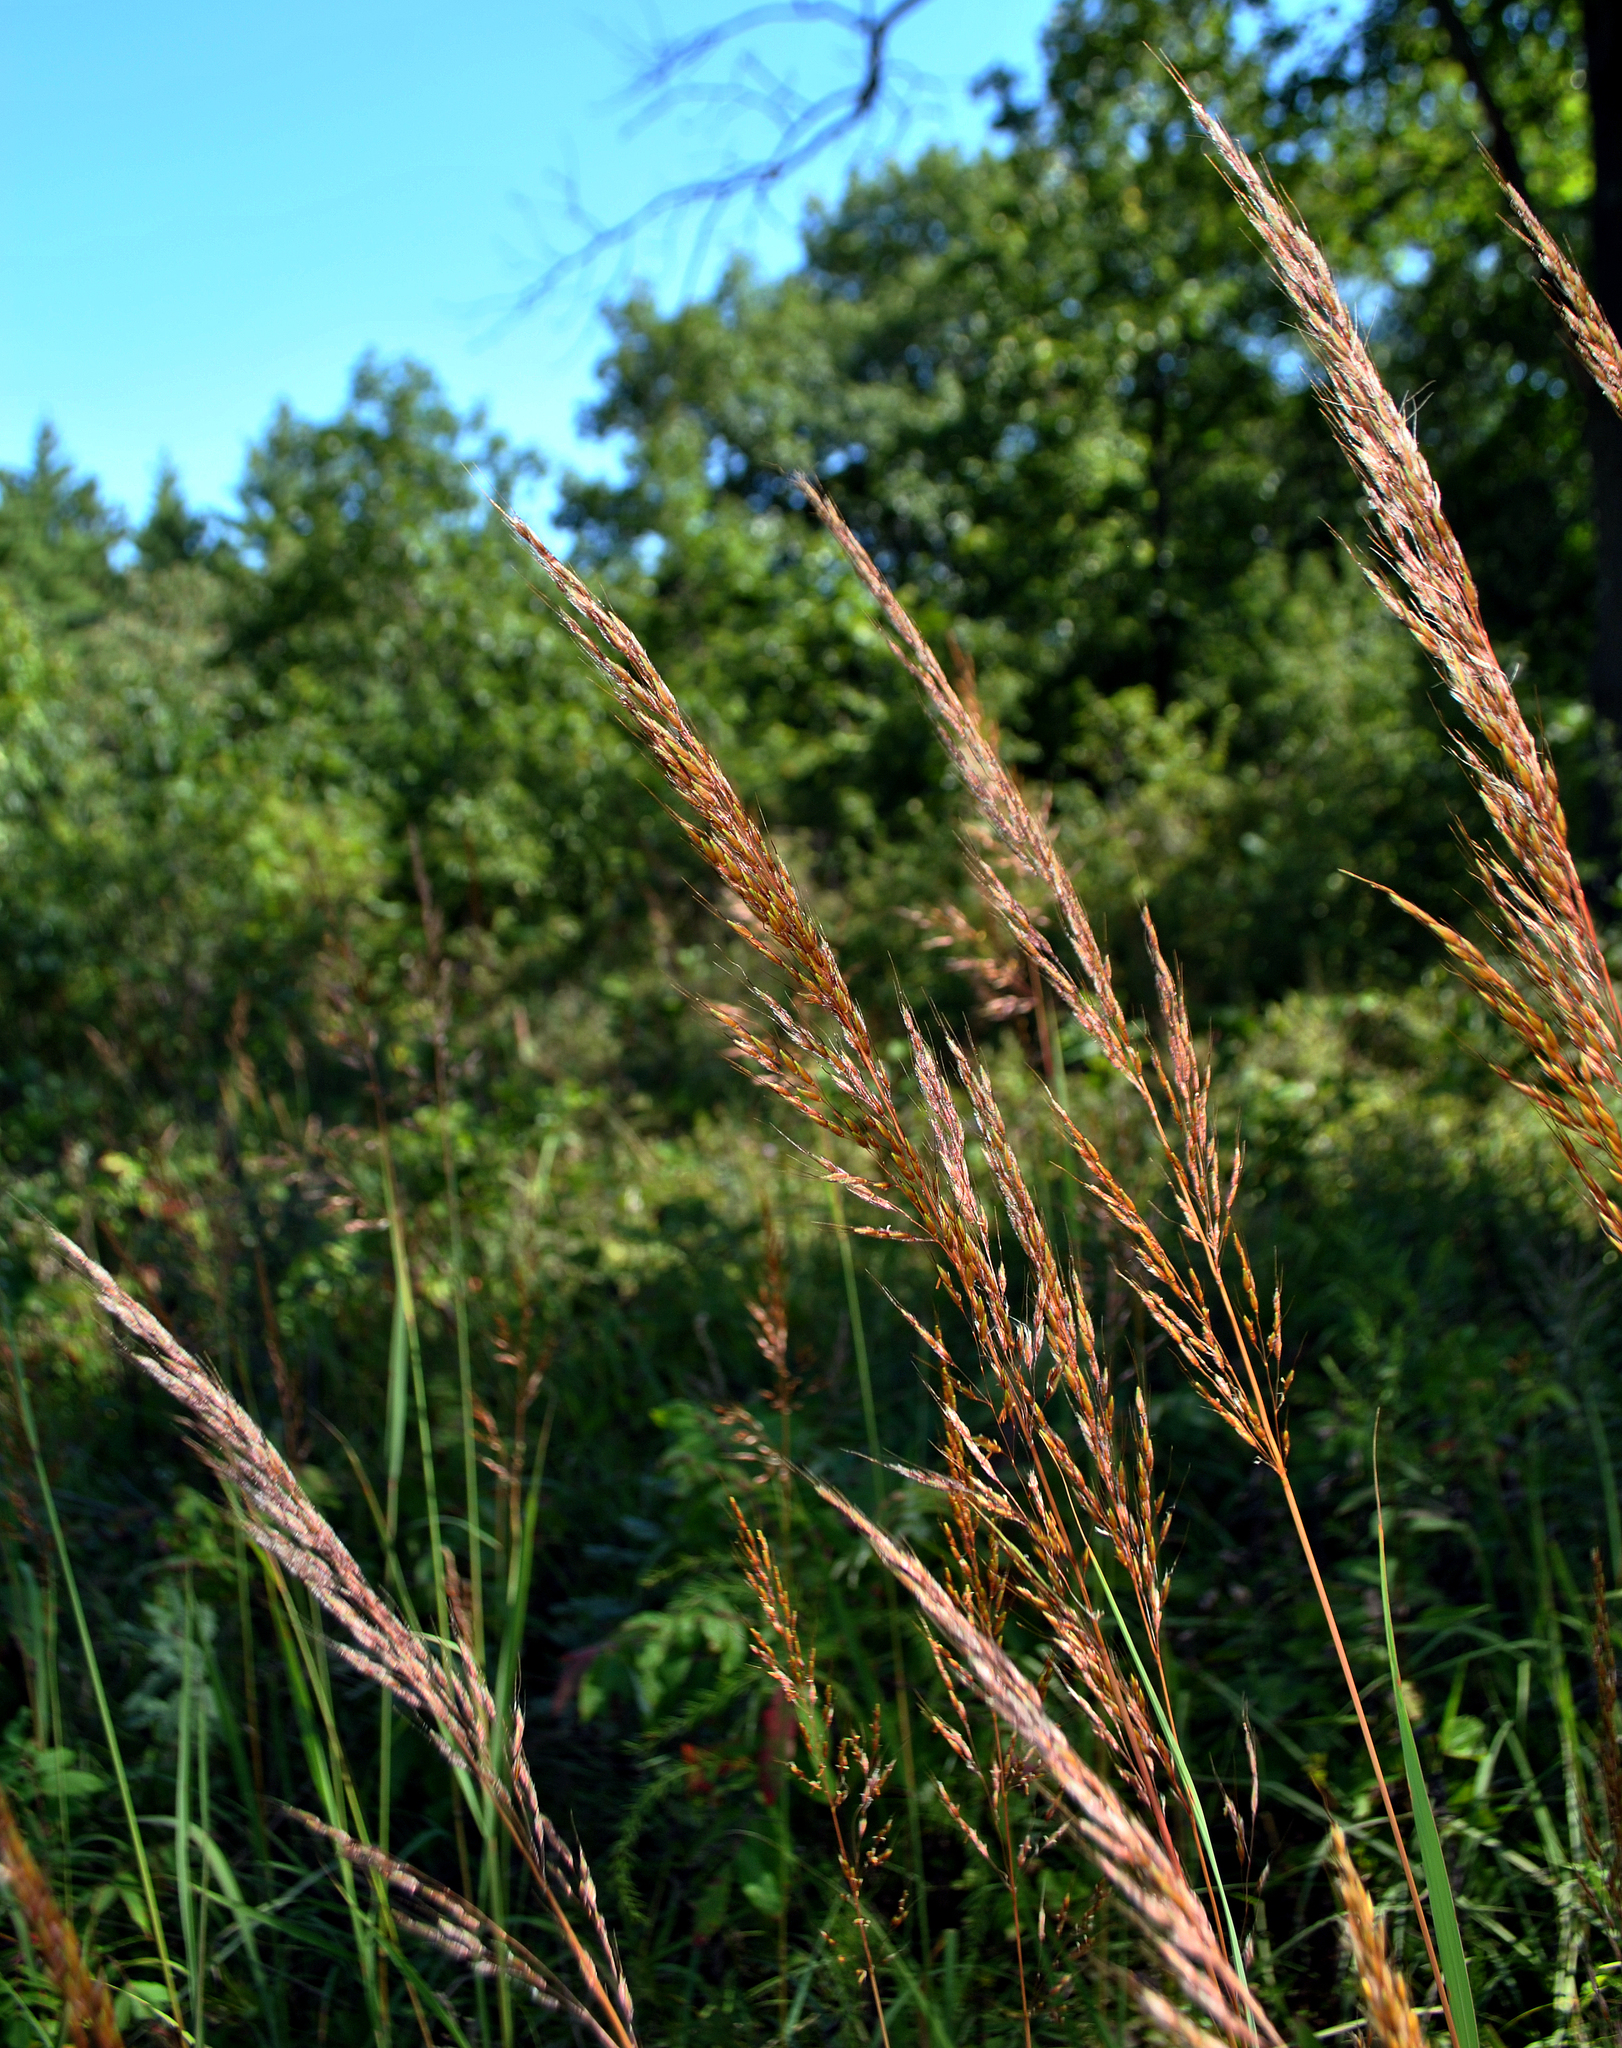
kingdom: Plantae
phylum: Tracheophyta
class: Liliopsida
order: Poales
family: Poaceae
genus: Sorghastrum
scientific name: Sorghastrum nutans
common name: Indian grass
